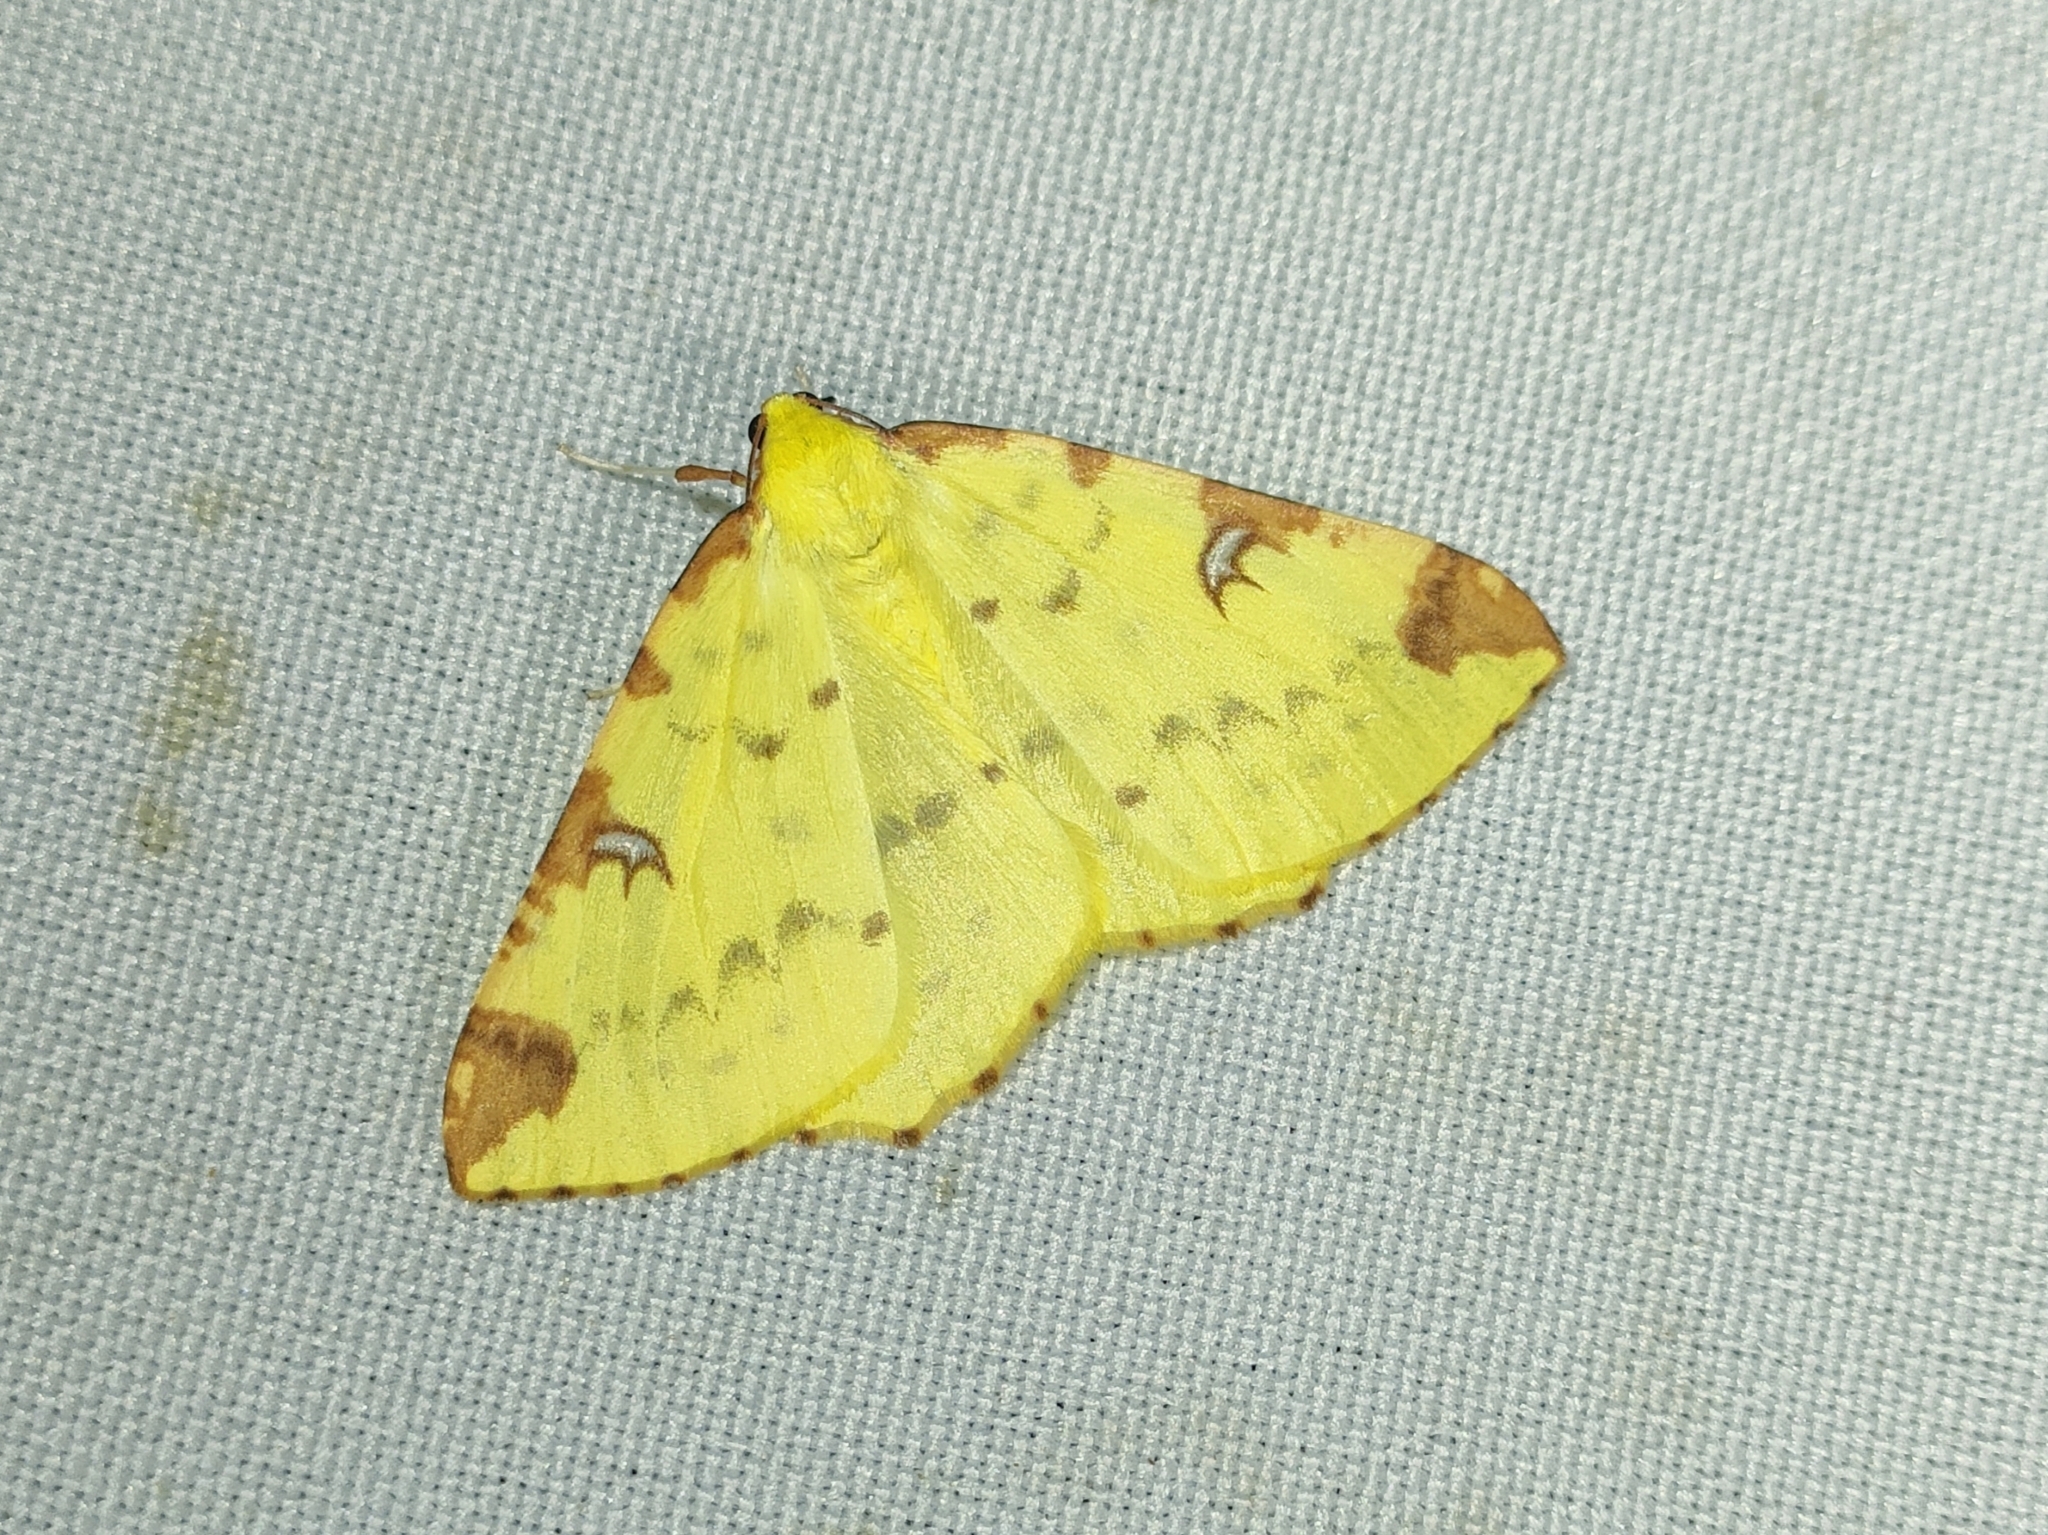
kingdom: Animalia
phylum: Arthropoda
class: Insecta
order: Lepidoptera
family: Geometridae
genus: Opisthograptis
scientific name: Opisthograptis luteolata
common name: Brimstone moth
